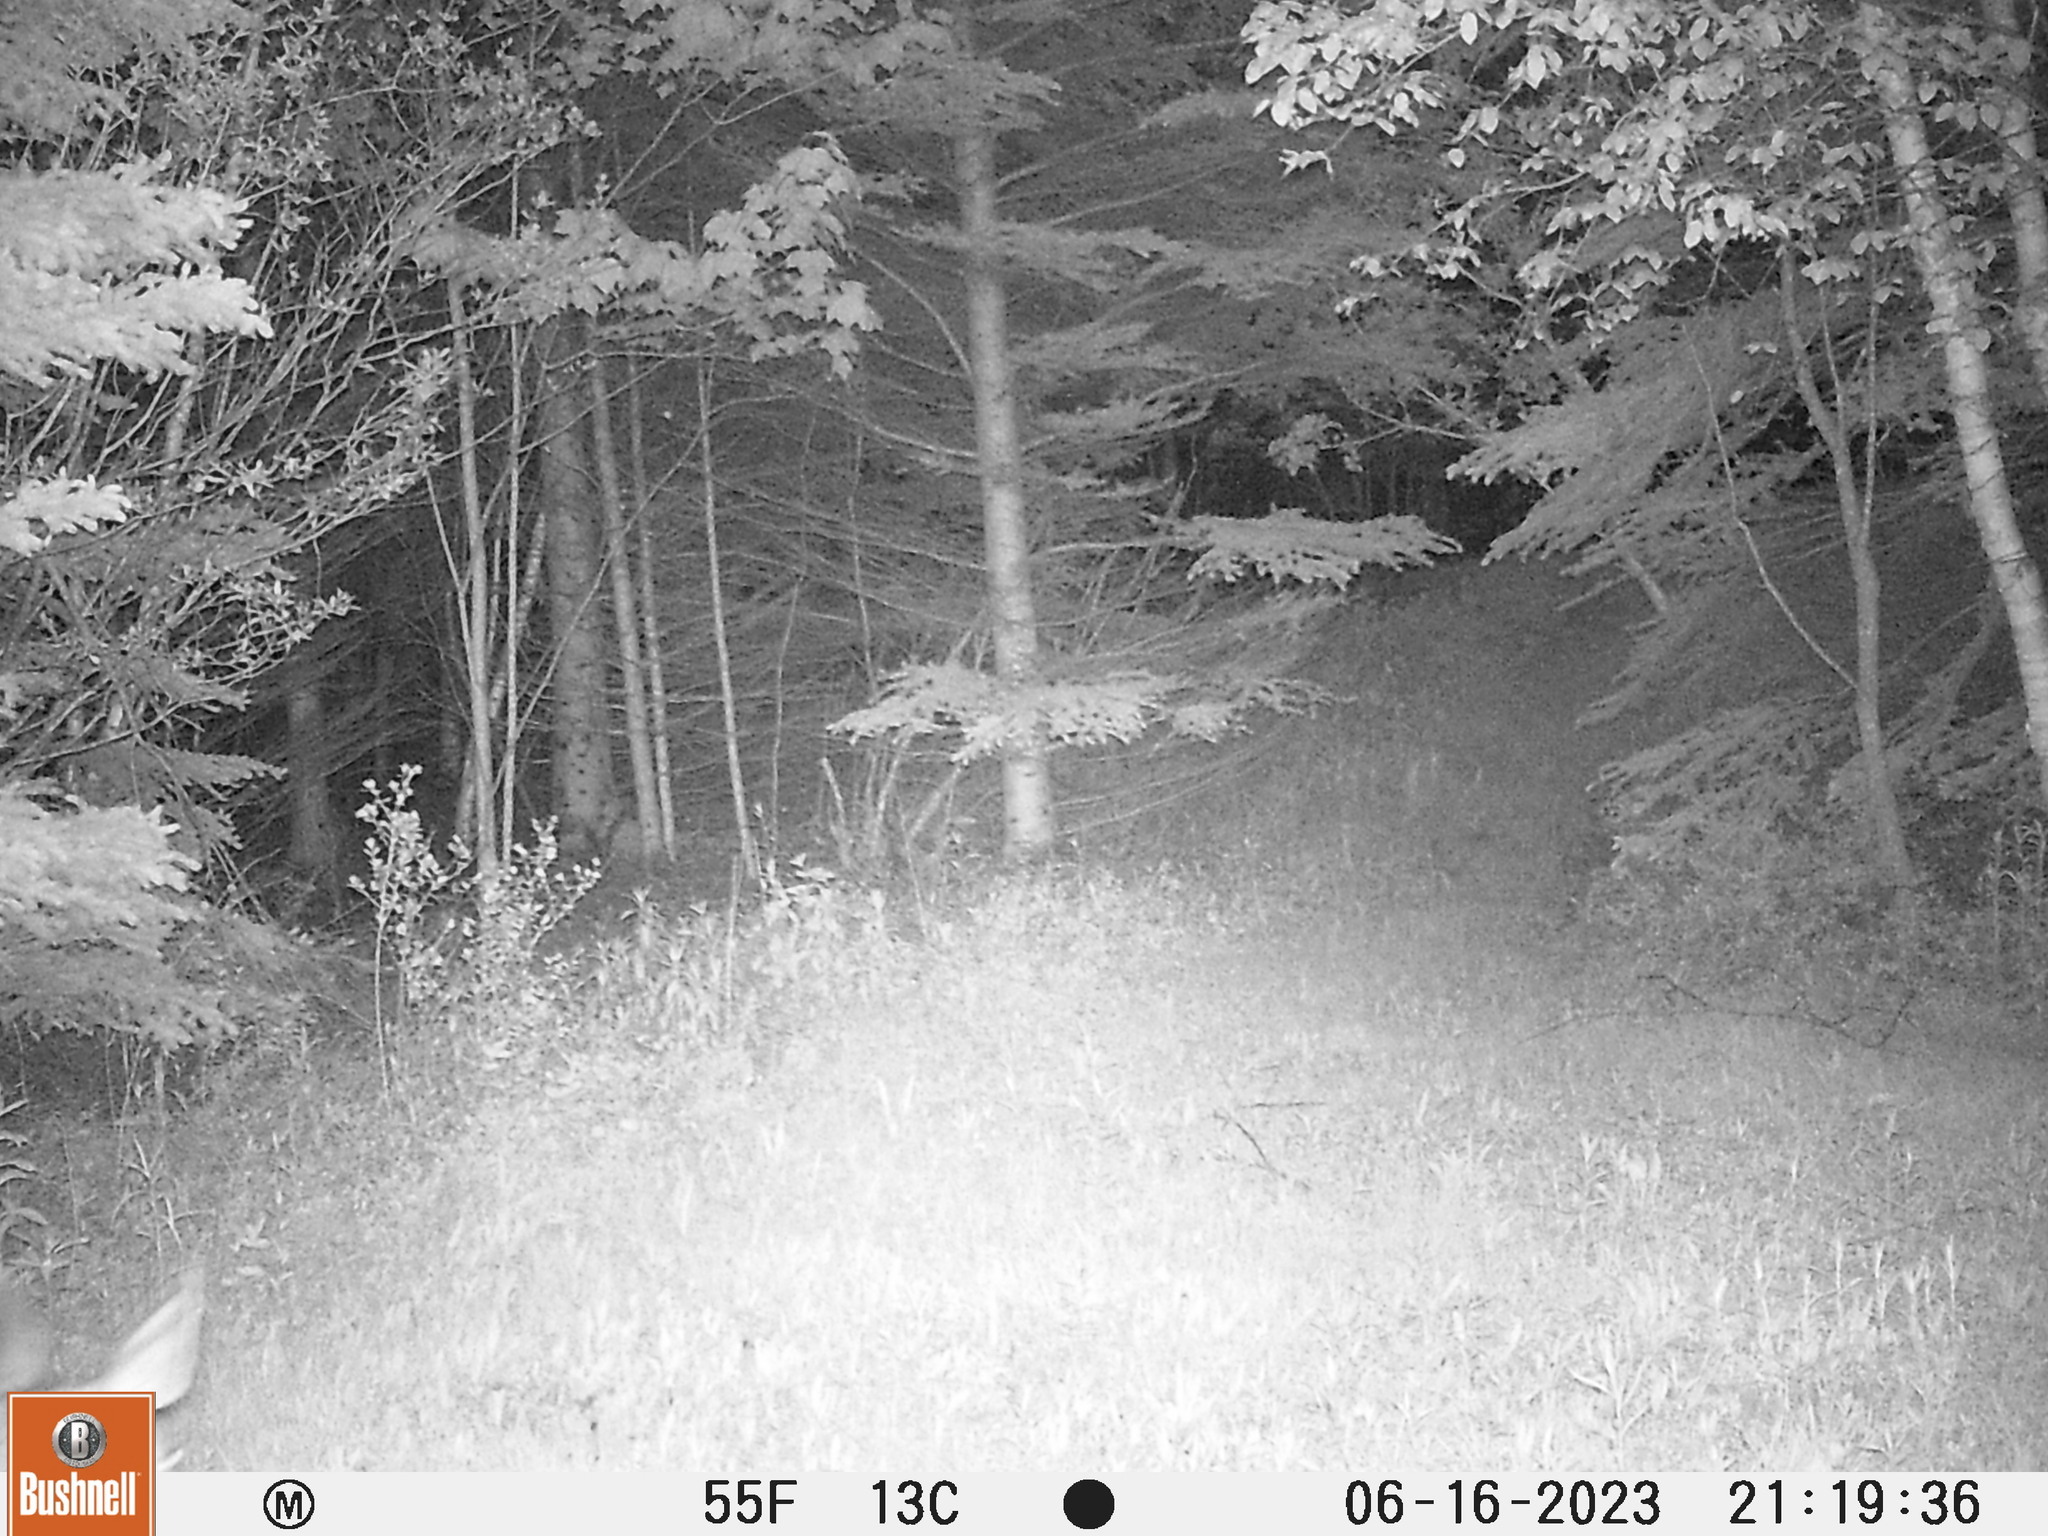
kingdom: Animalia
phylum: Chordata
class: Mammalia
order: Artiodactyla
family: Cervidae
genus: Odocoileus
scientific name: Odocoileus virginianus
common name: White-tailed deer
